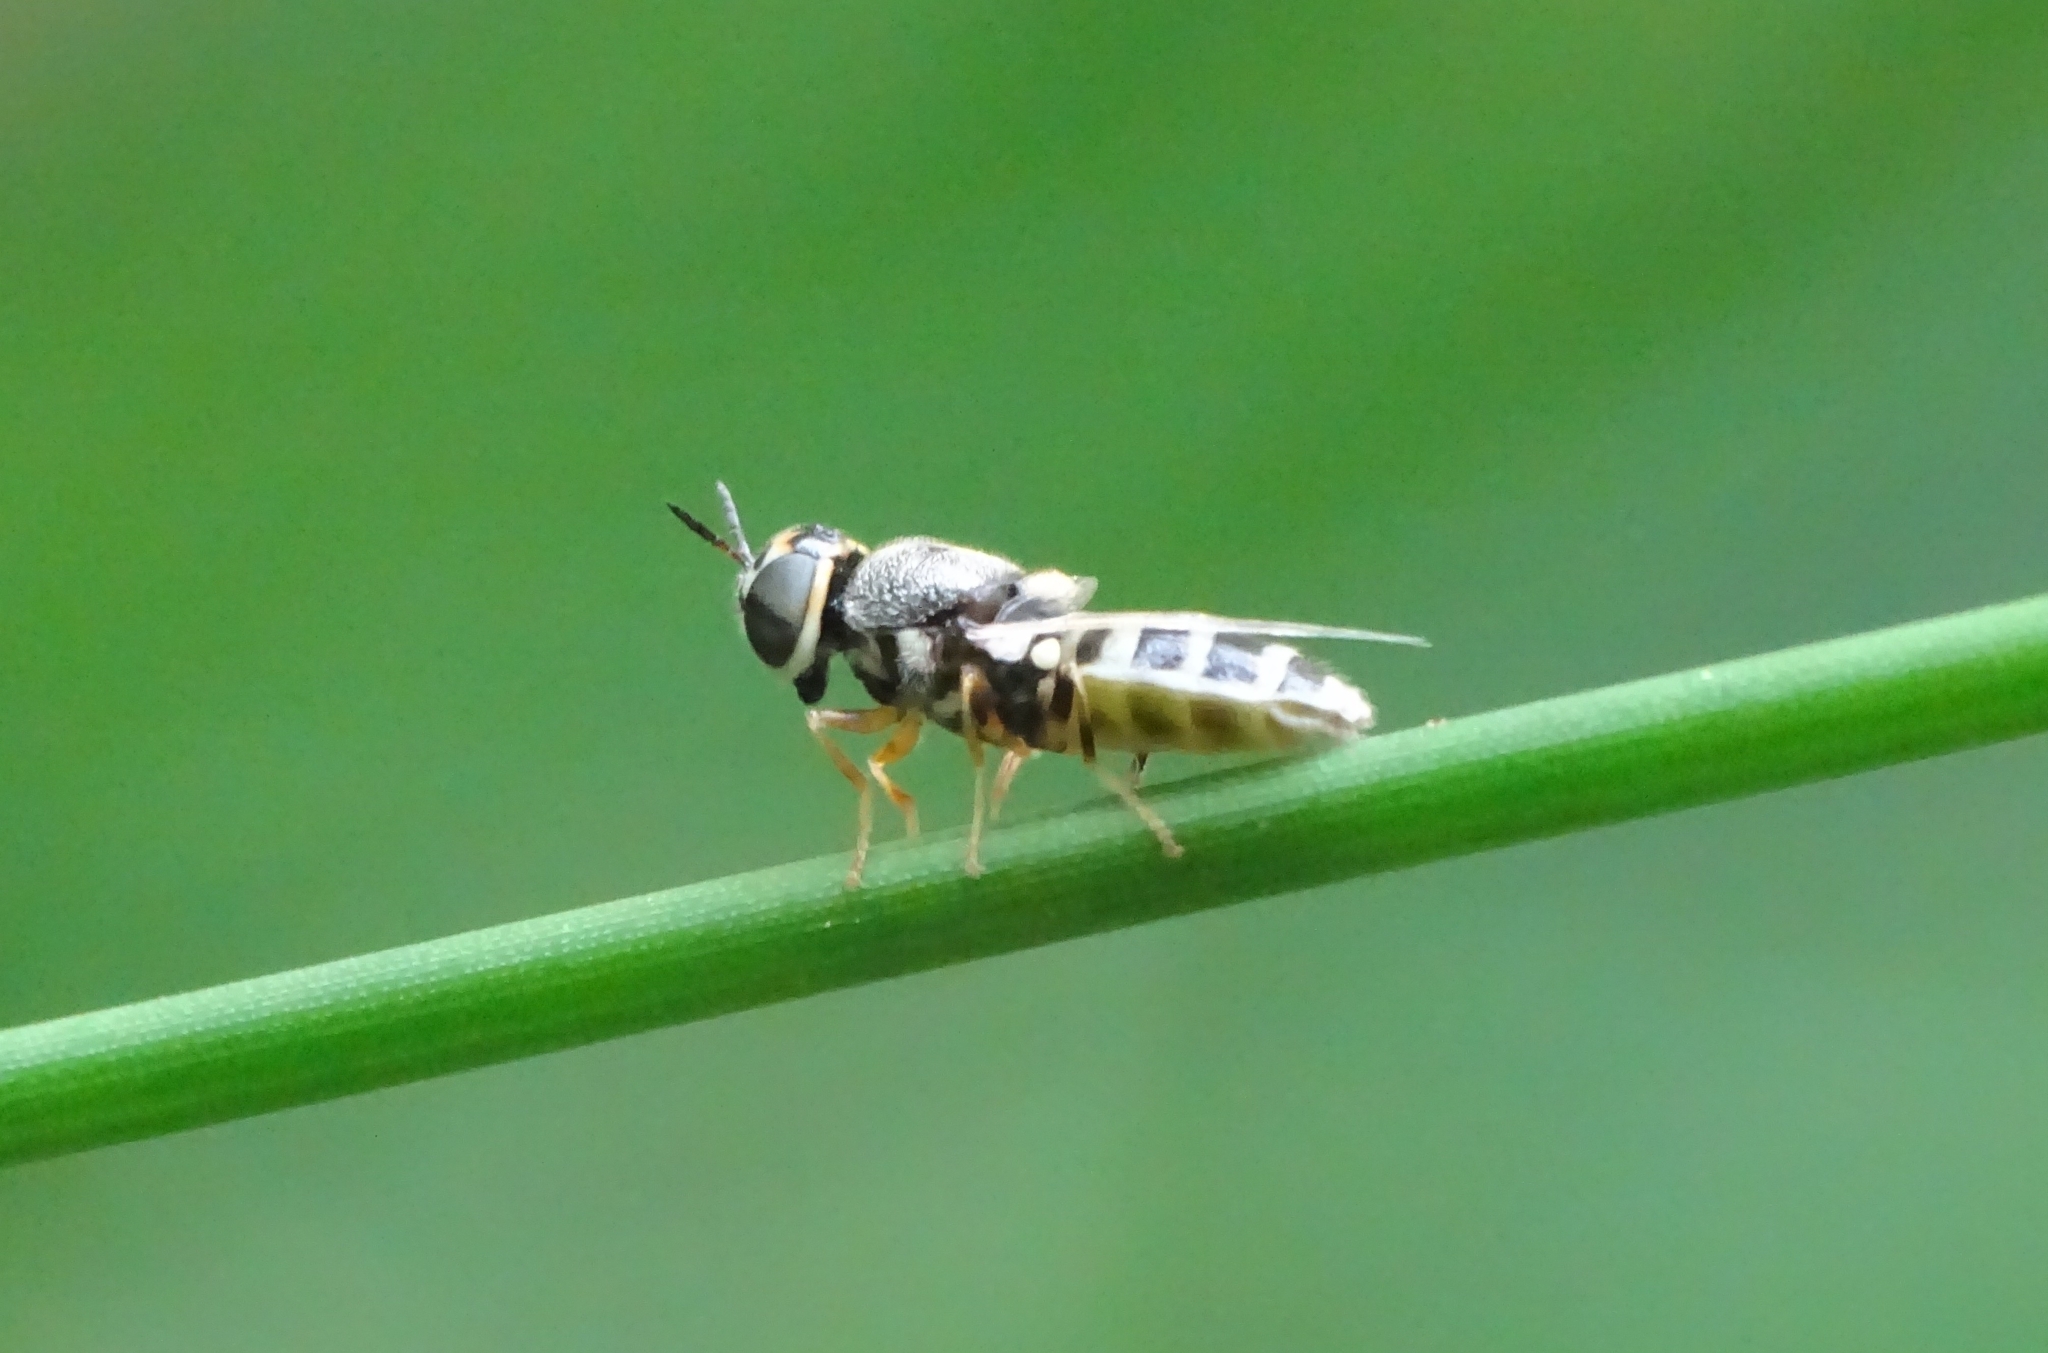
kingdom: Animalia
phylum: Arthropoda
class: Insecta
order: Diptera
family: Stratiomyidae
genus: Oplodontha
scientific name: Oplodontha minuta
